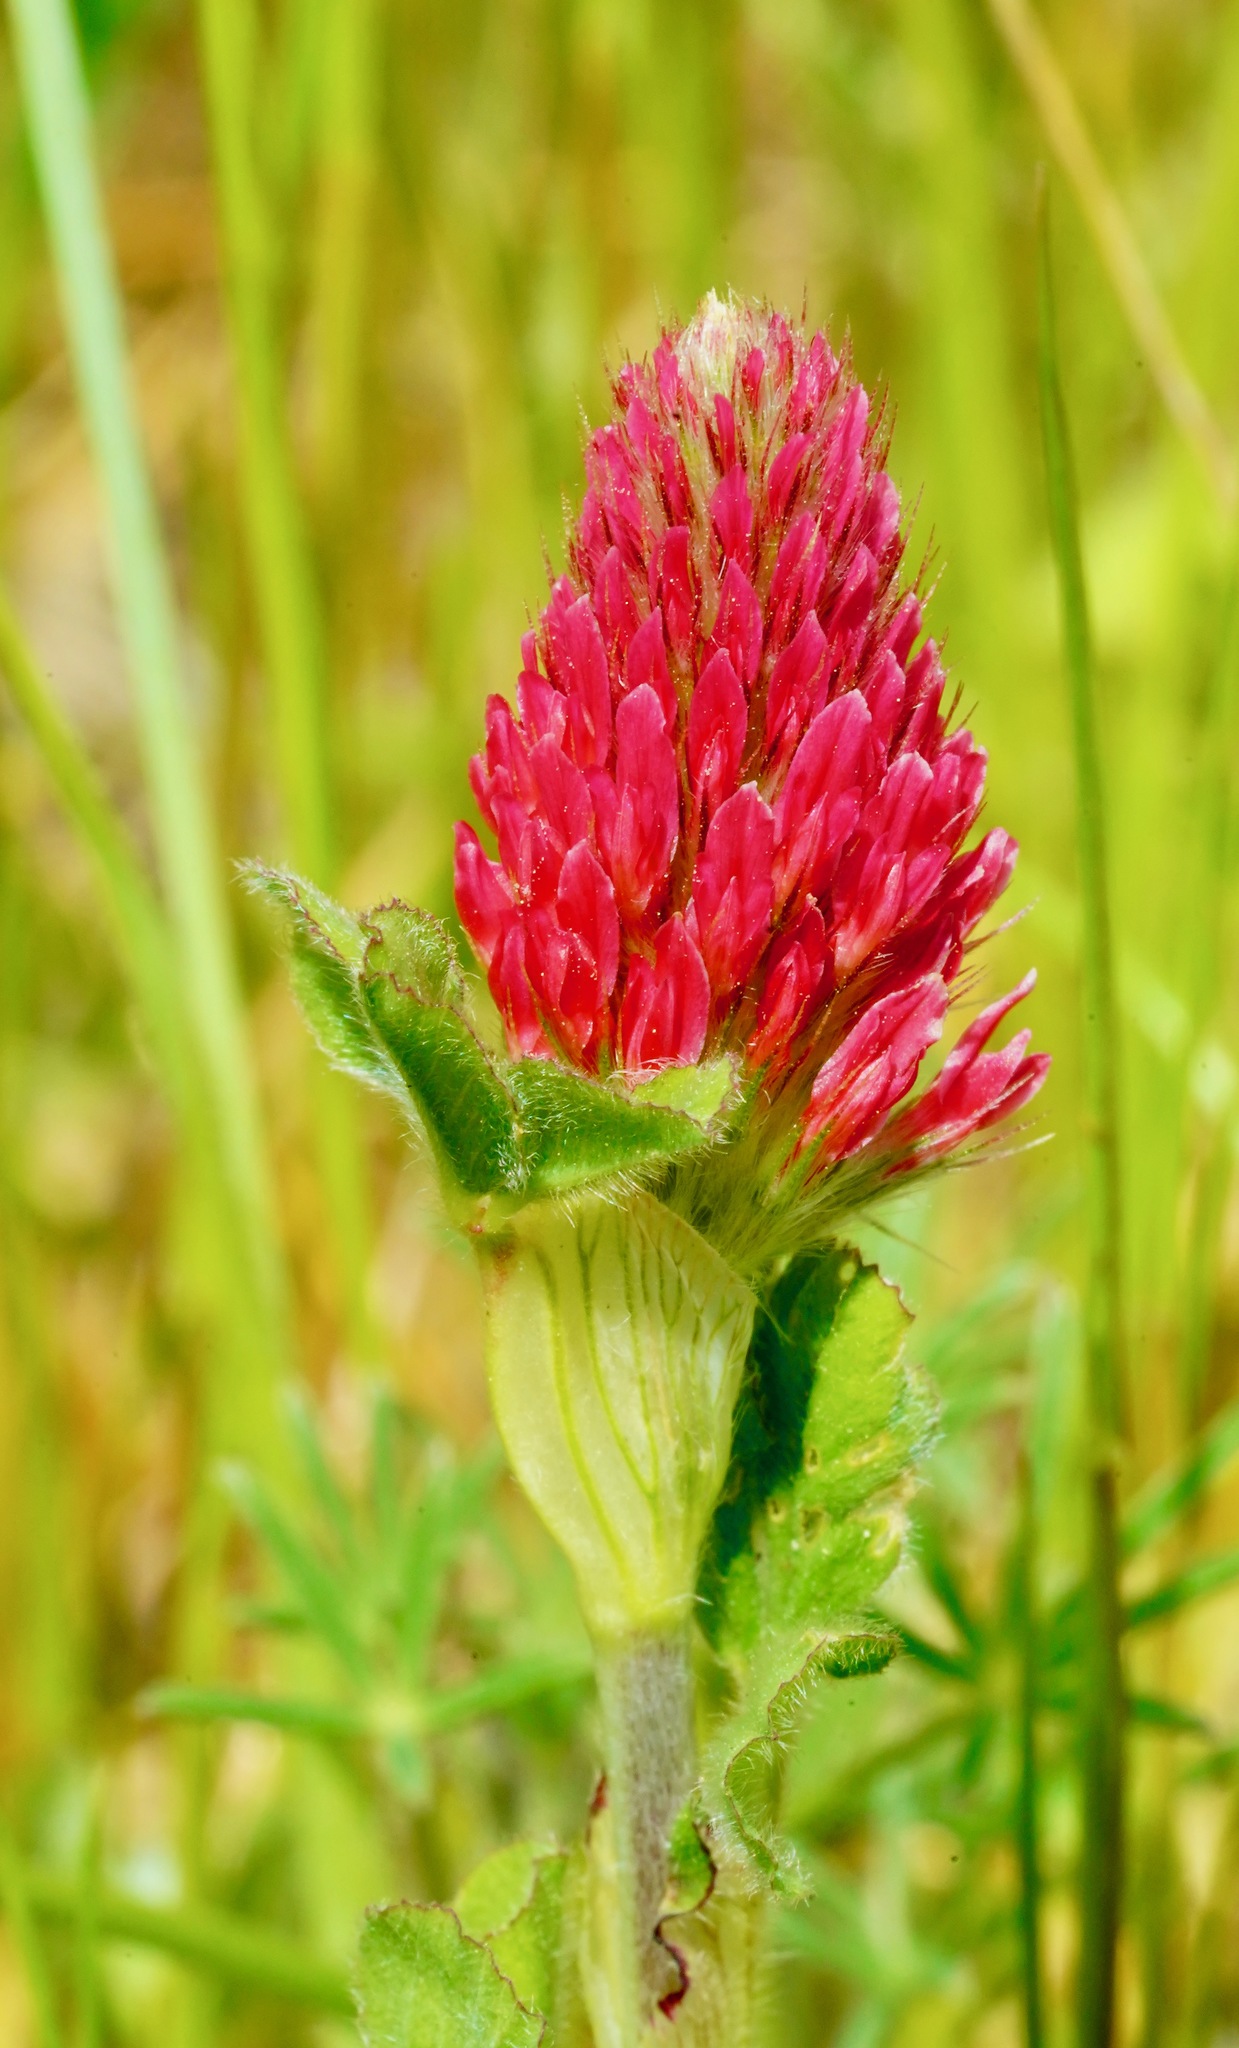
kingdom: Plantae
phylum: Tracheophyta
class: Magnoliopsida
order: Fabales
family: Fabaceae
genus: Trifolium
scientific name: Trifolium incarnatum
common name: Crimson clover
